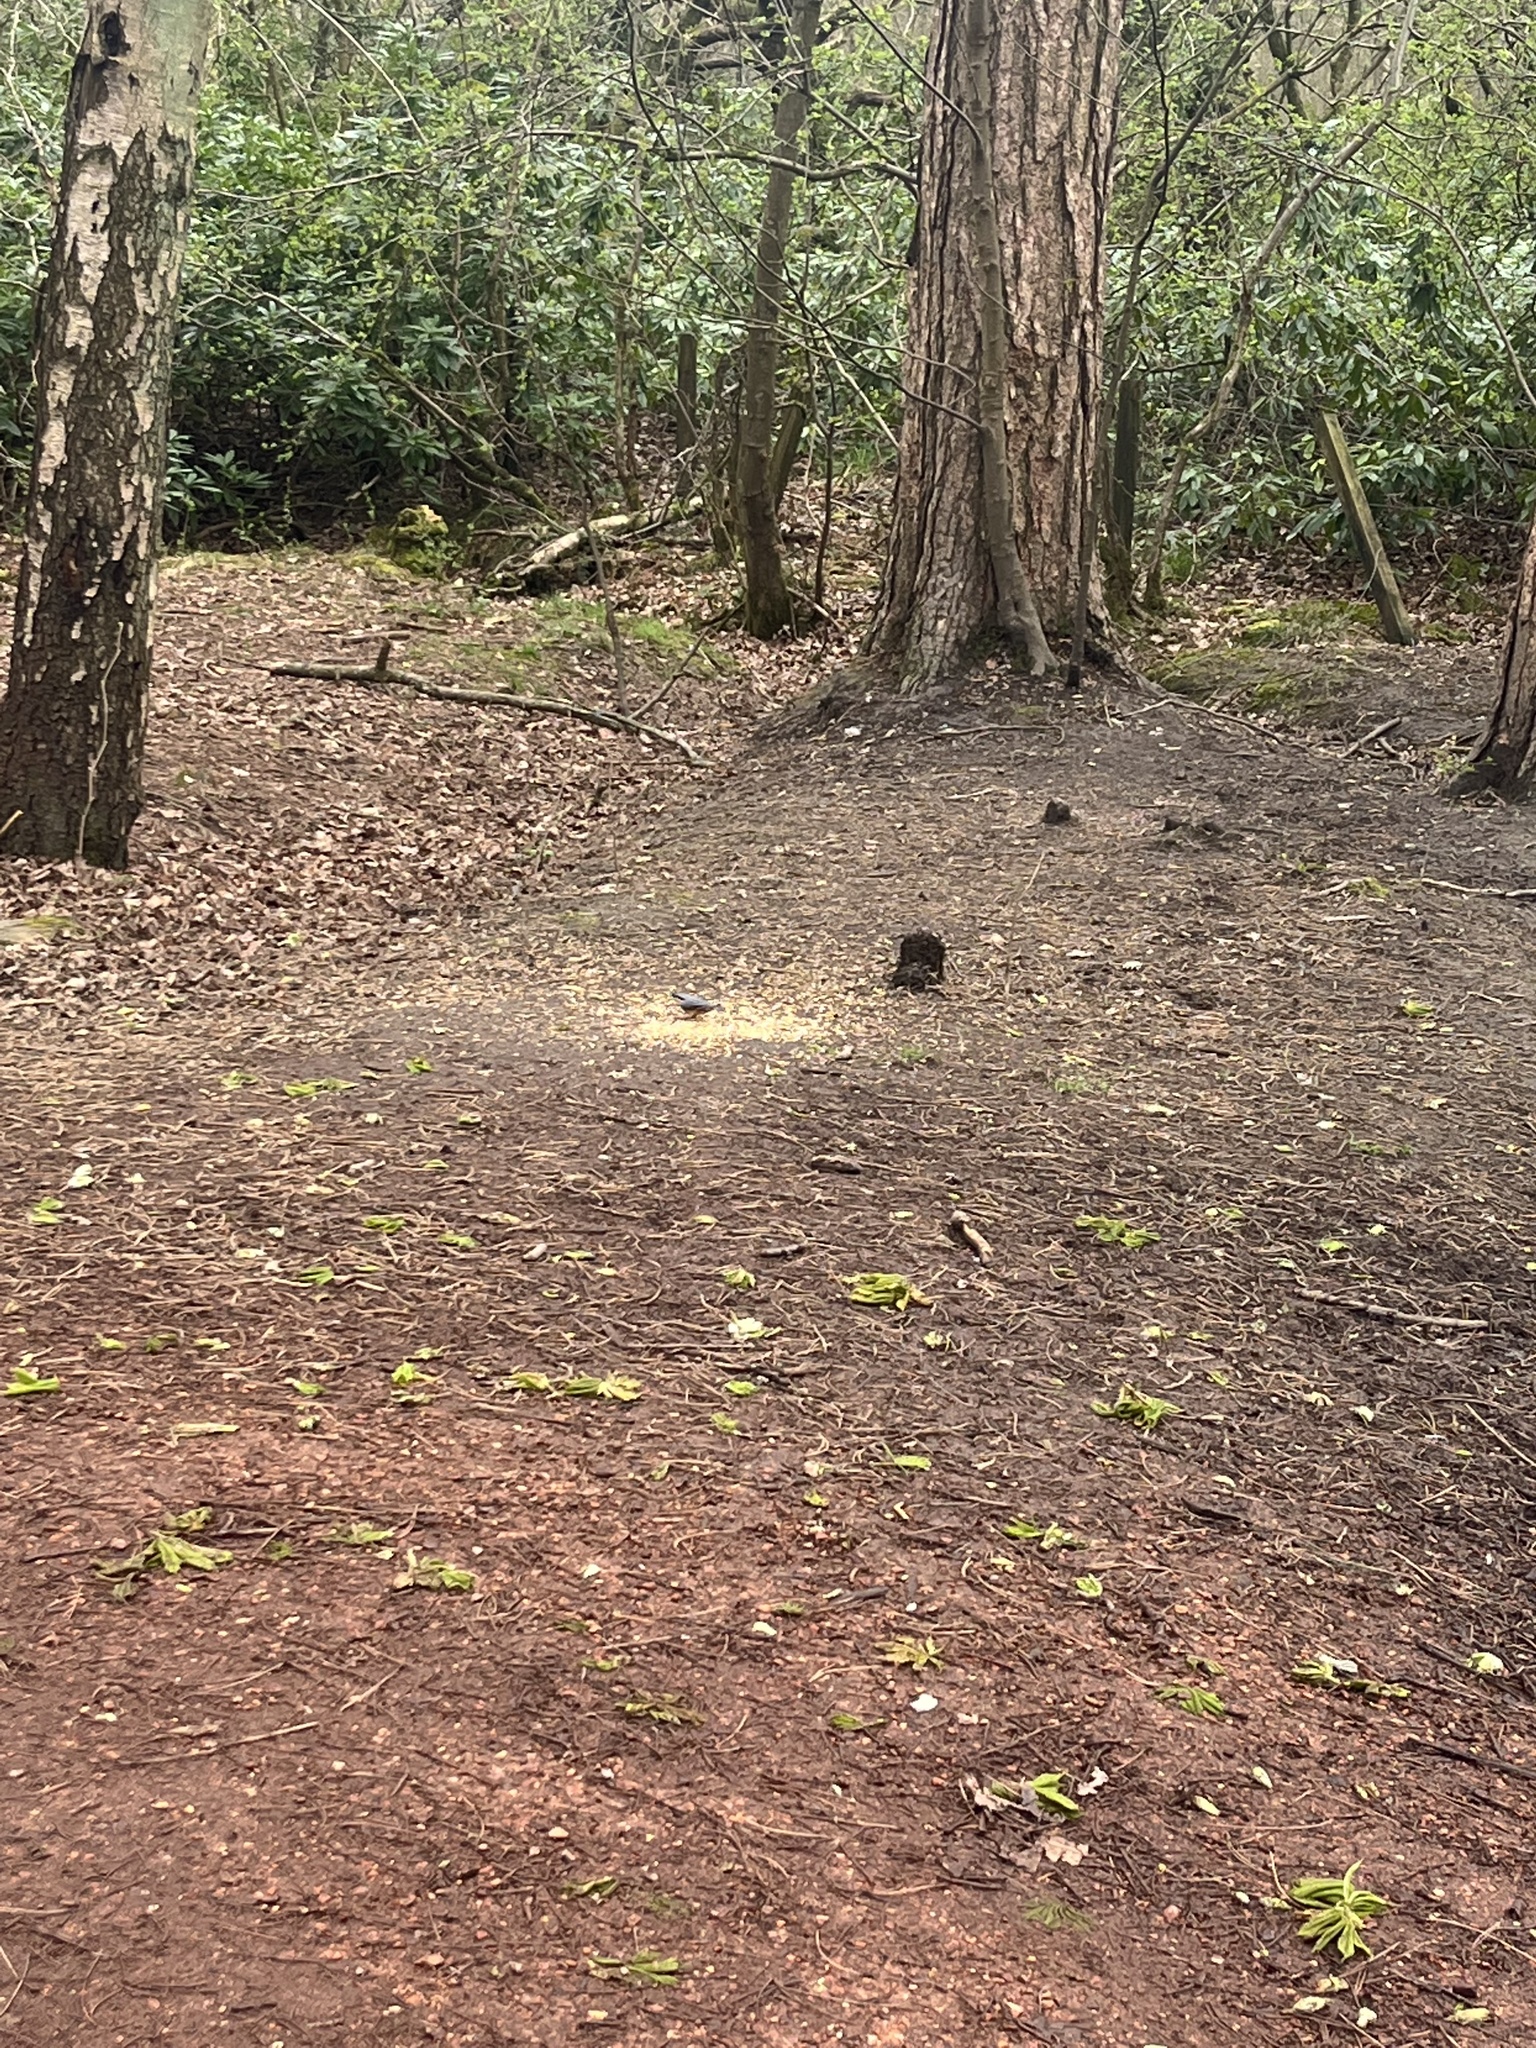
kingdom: Animalia
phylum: Chordata
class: Aves
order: Passeriformes
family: Sittidae
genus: Sitta
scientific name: Sitta europaea
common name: Eurasian nuthatch
